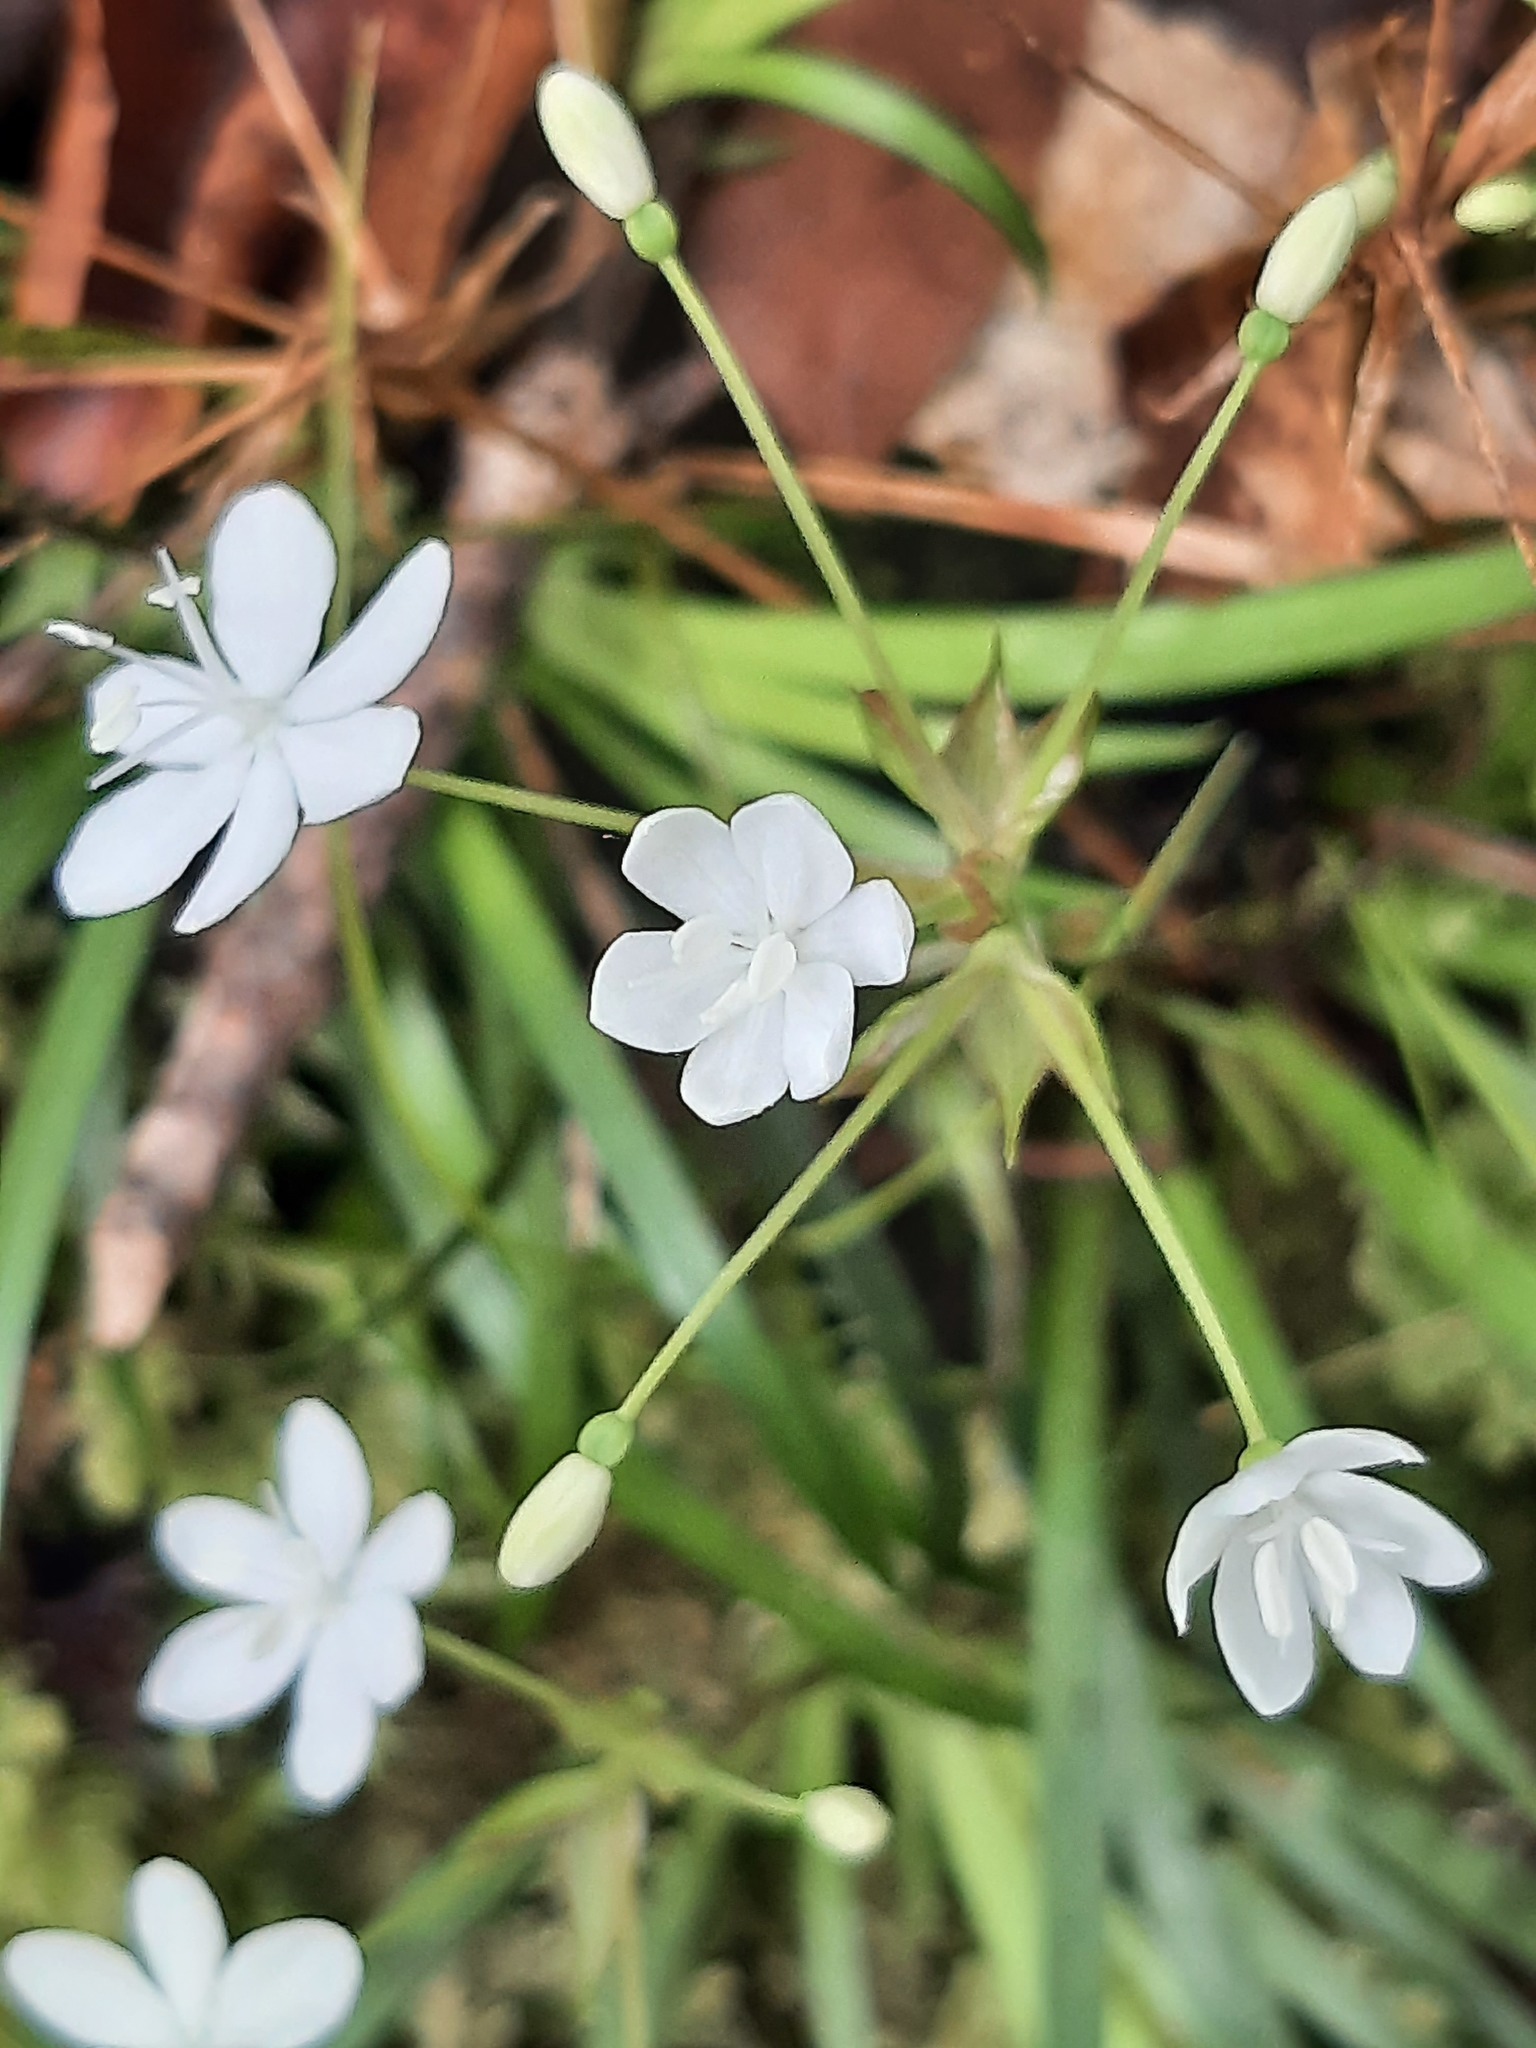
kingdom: Plantae
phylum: Tracheophyta
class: Liliopsida
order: Asparagales
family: Iridaceae
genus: Libertia
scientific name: Libertia micrantha
